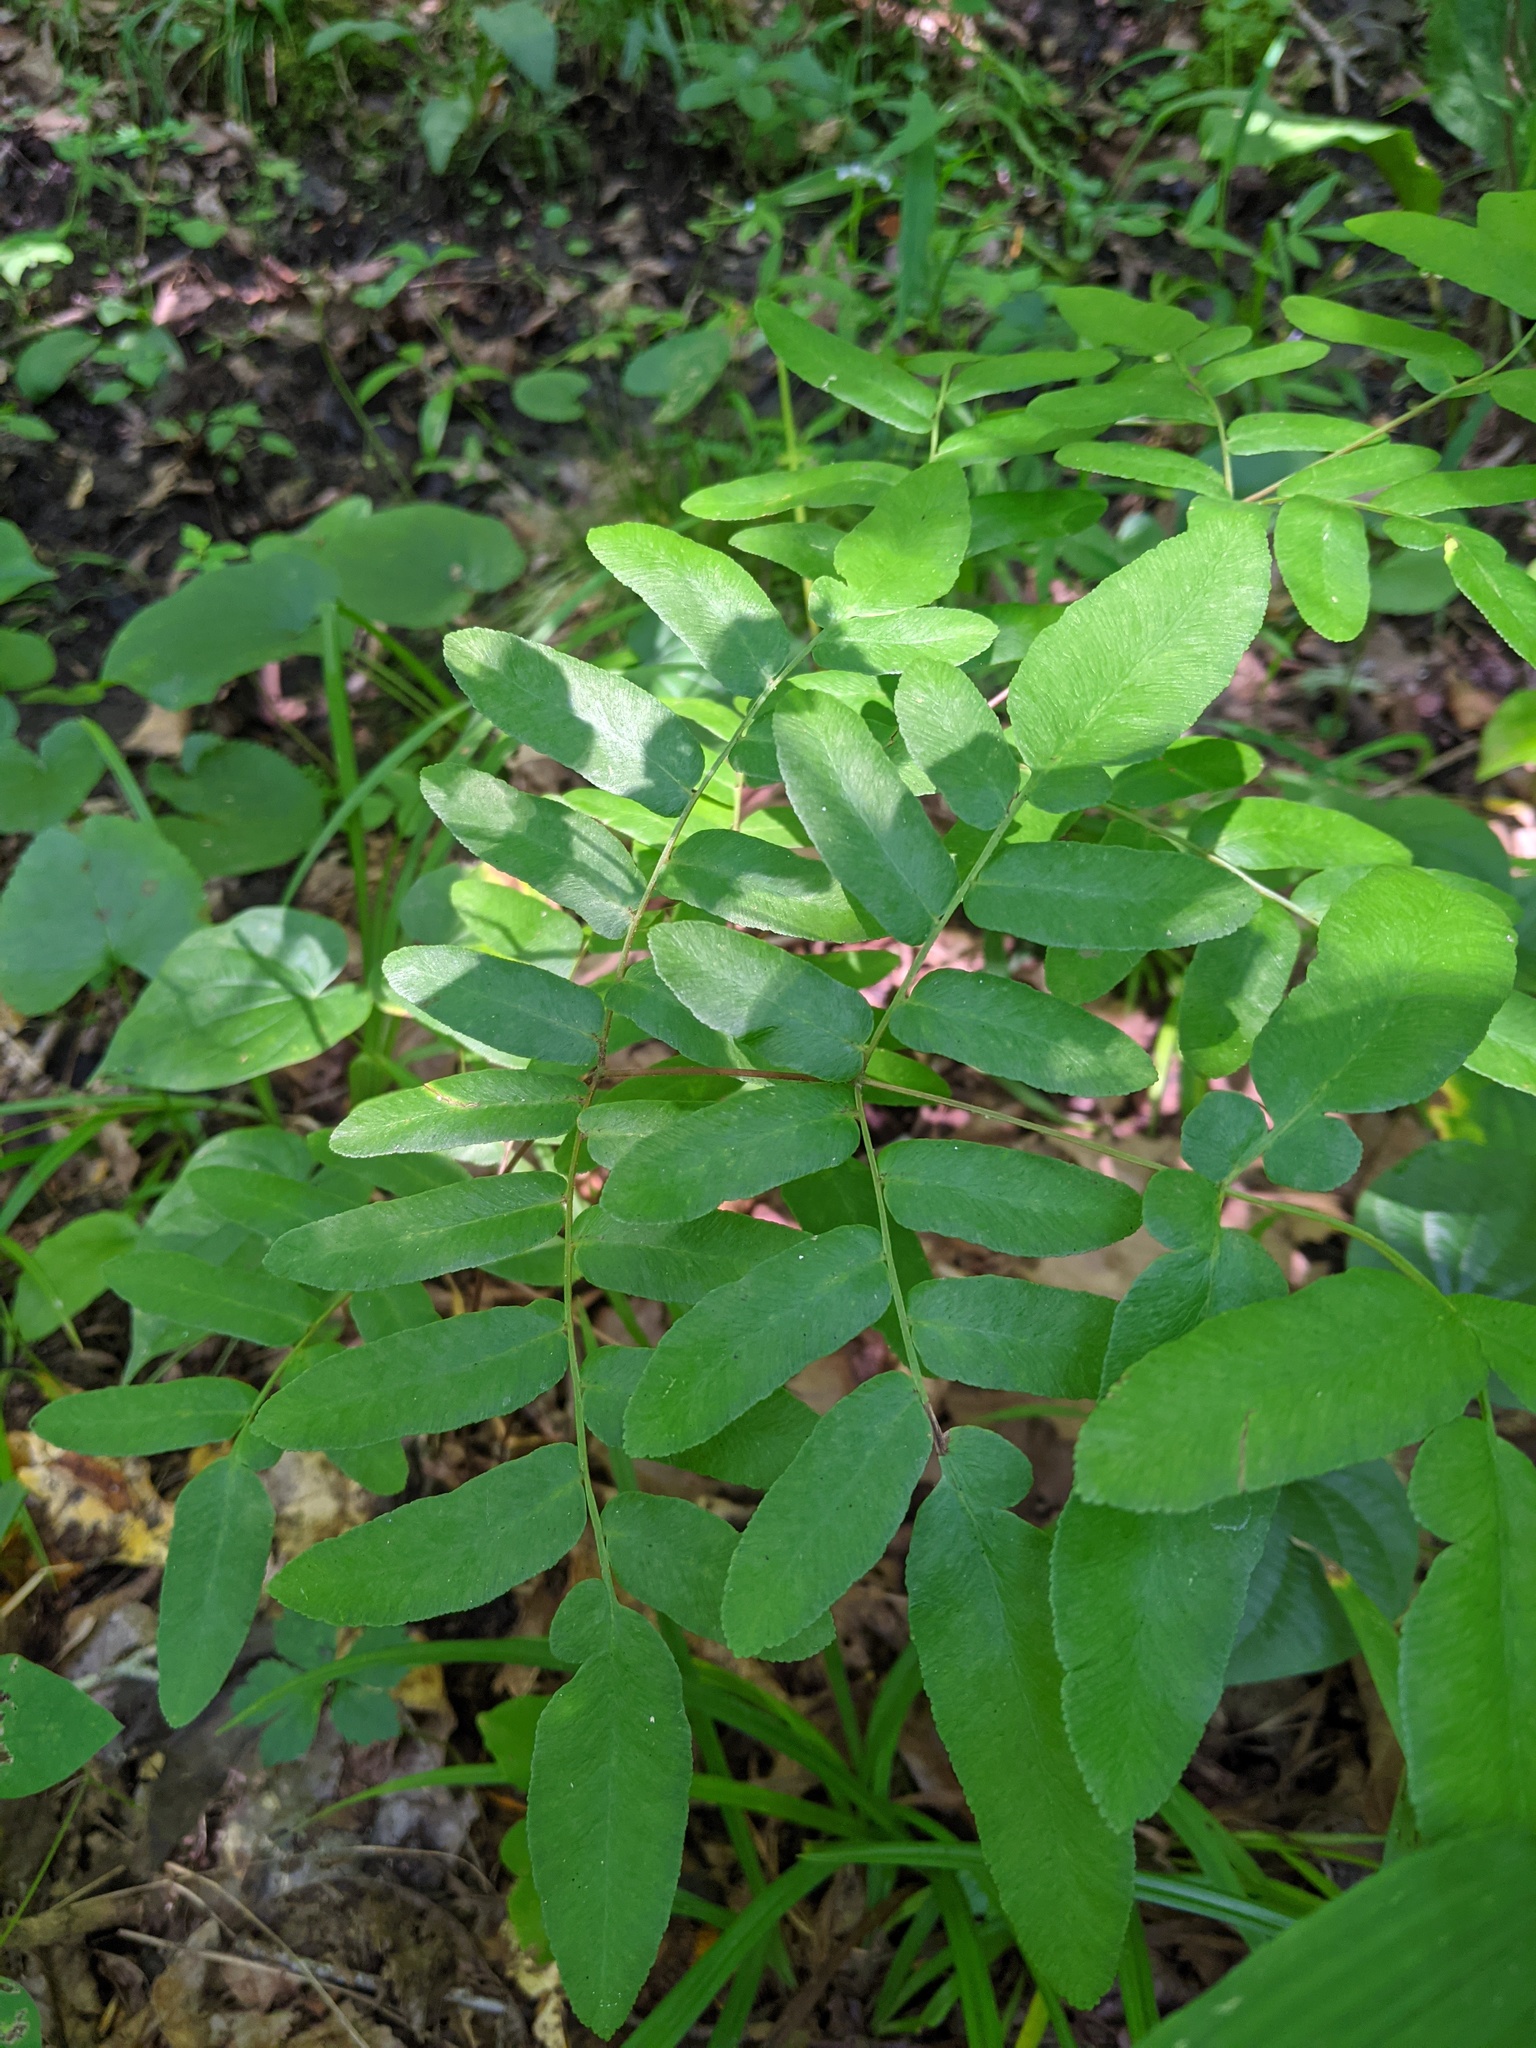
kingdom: Plantae
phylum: Tracheophyta
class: Polypodiopsida
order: Osmundales
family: Osmundaceae
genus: Osmunda
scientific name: Osmunda spectabilis
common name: American royal fern
